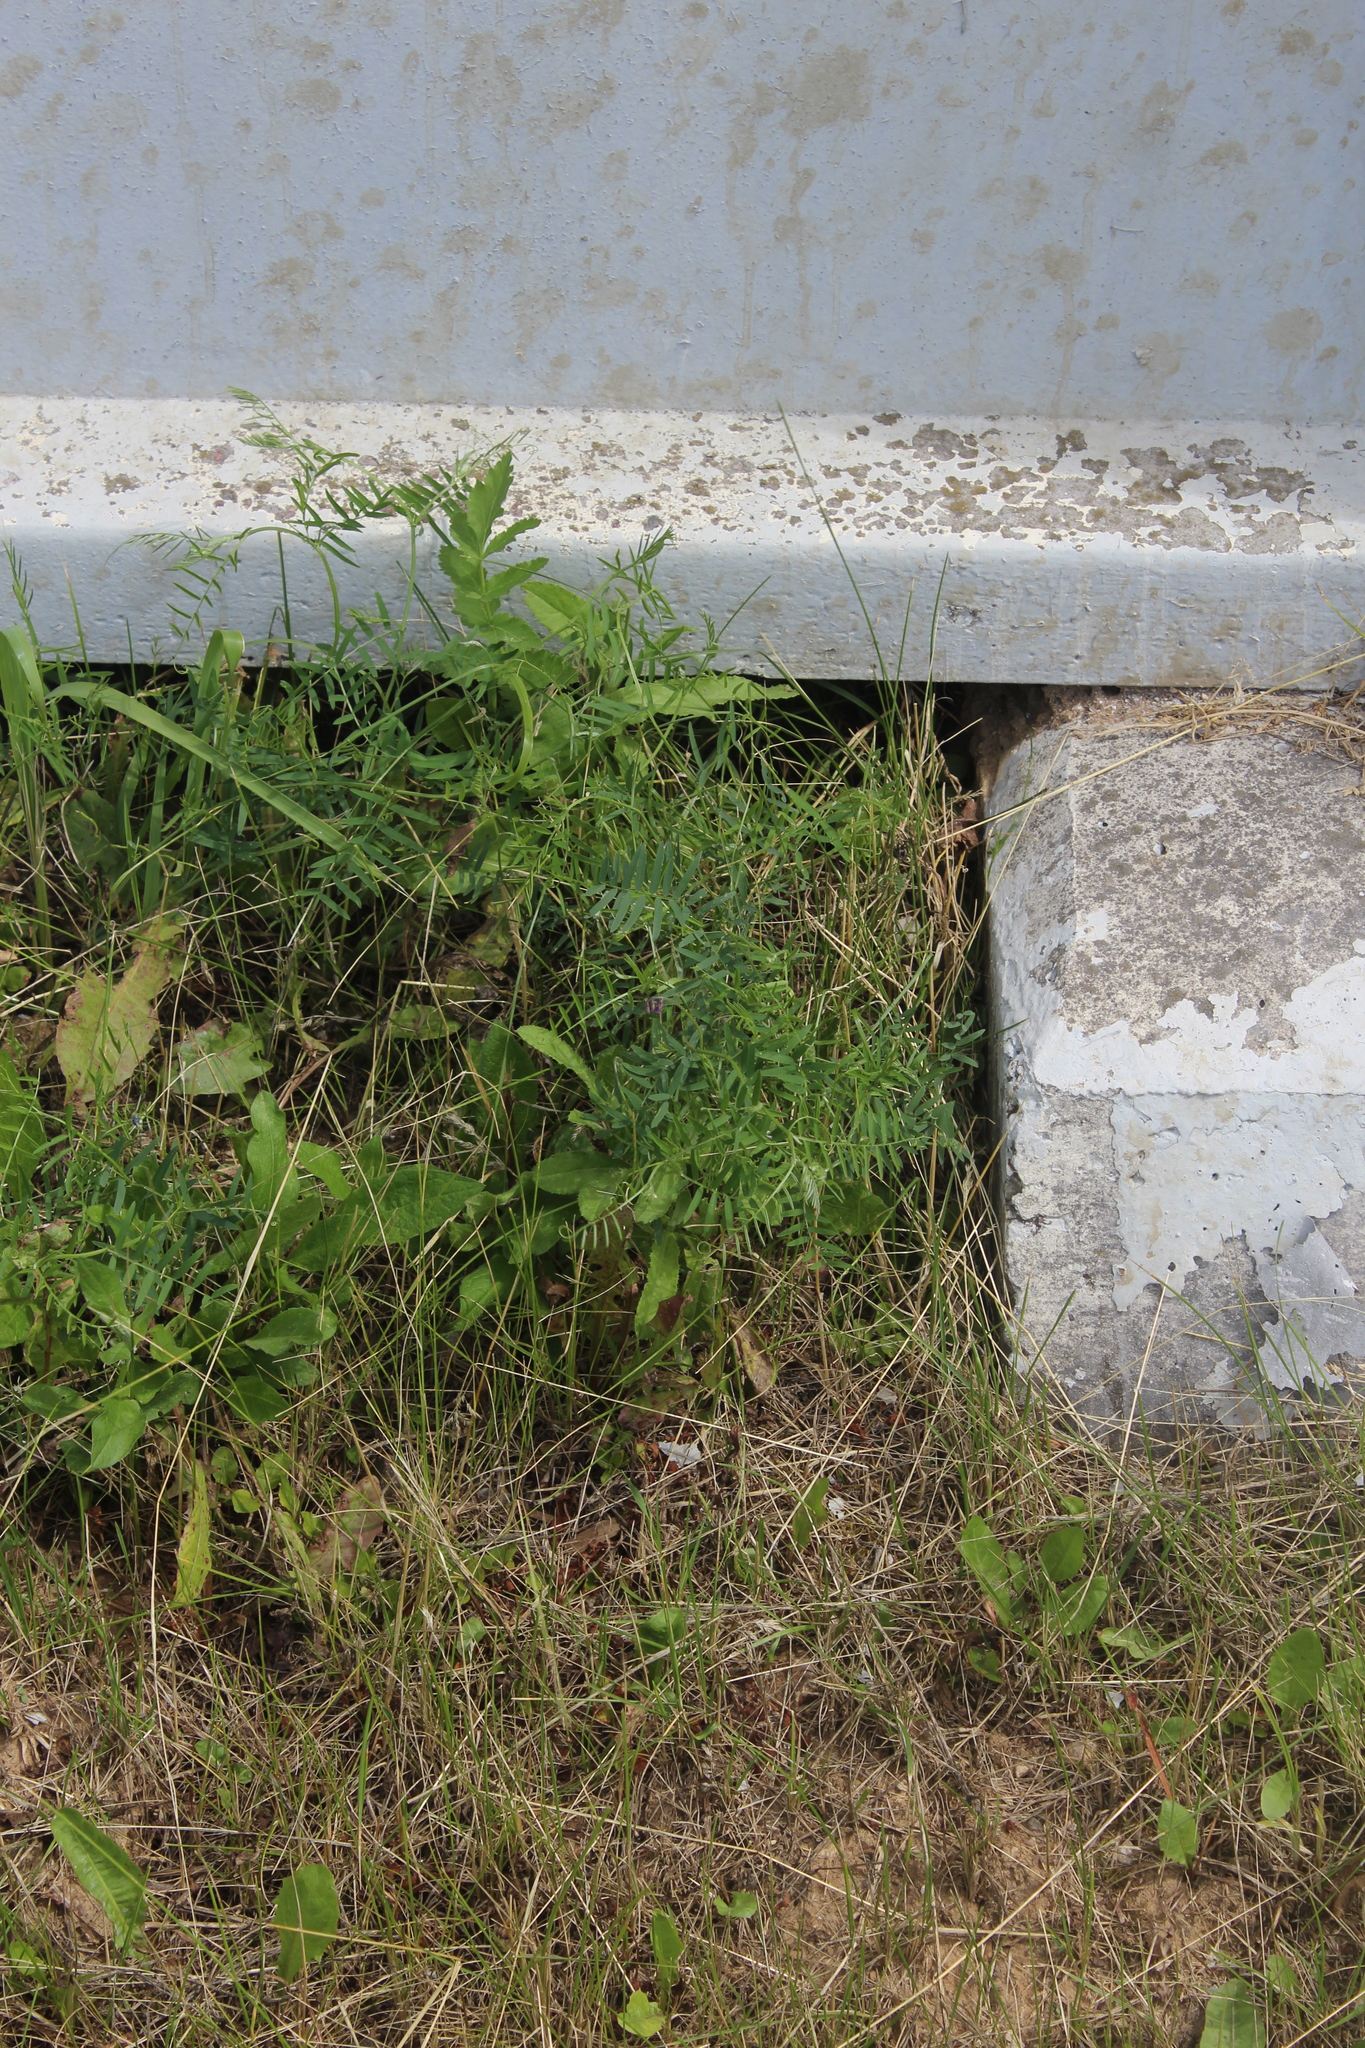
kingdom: Plantae
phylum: Tracheophyta
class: Magnoliopsida
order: Fabales
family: Fabaceae
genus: Vicia
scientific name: Vicia cracca
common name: Bird vetch
